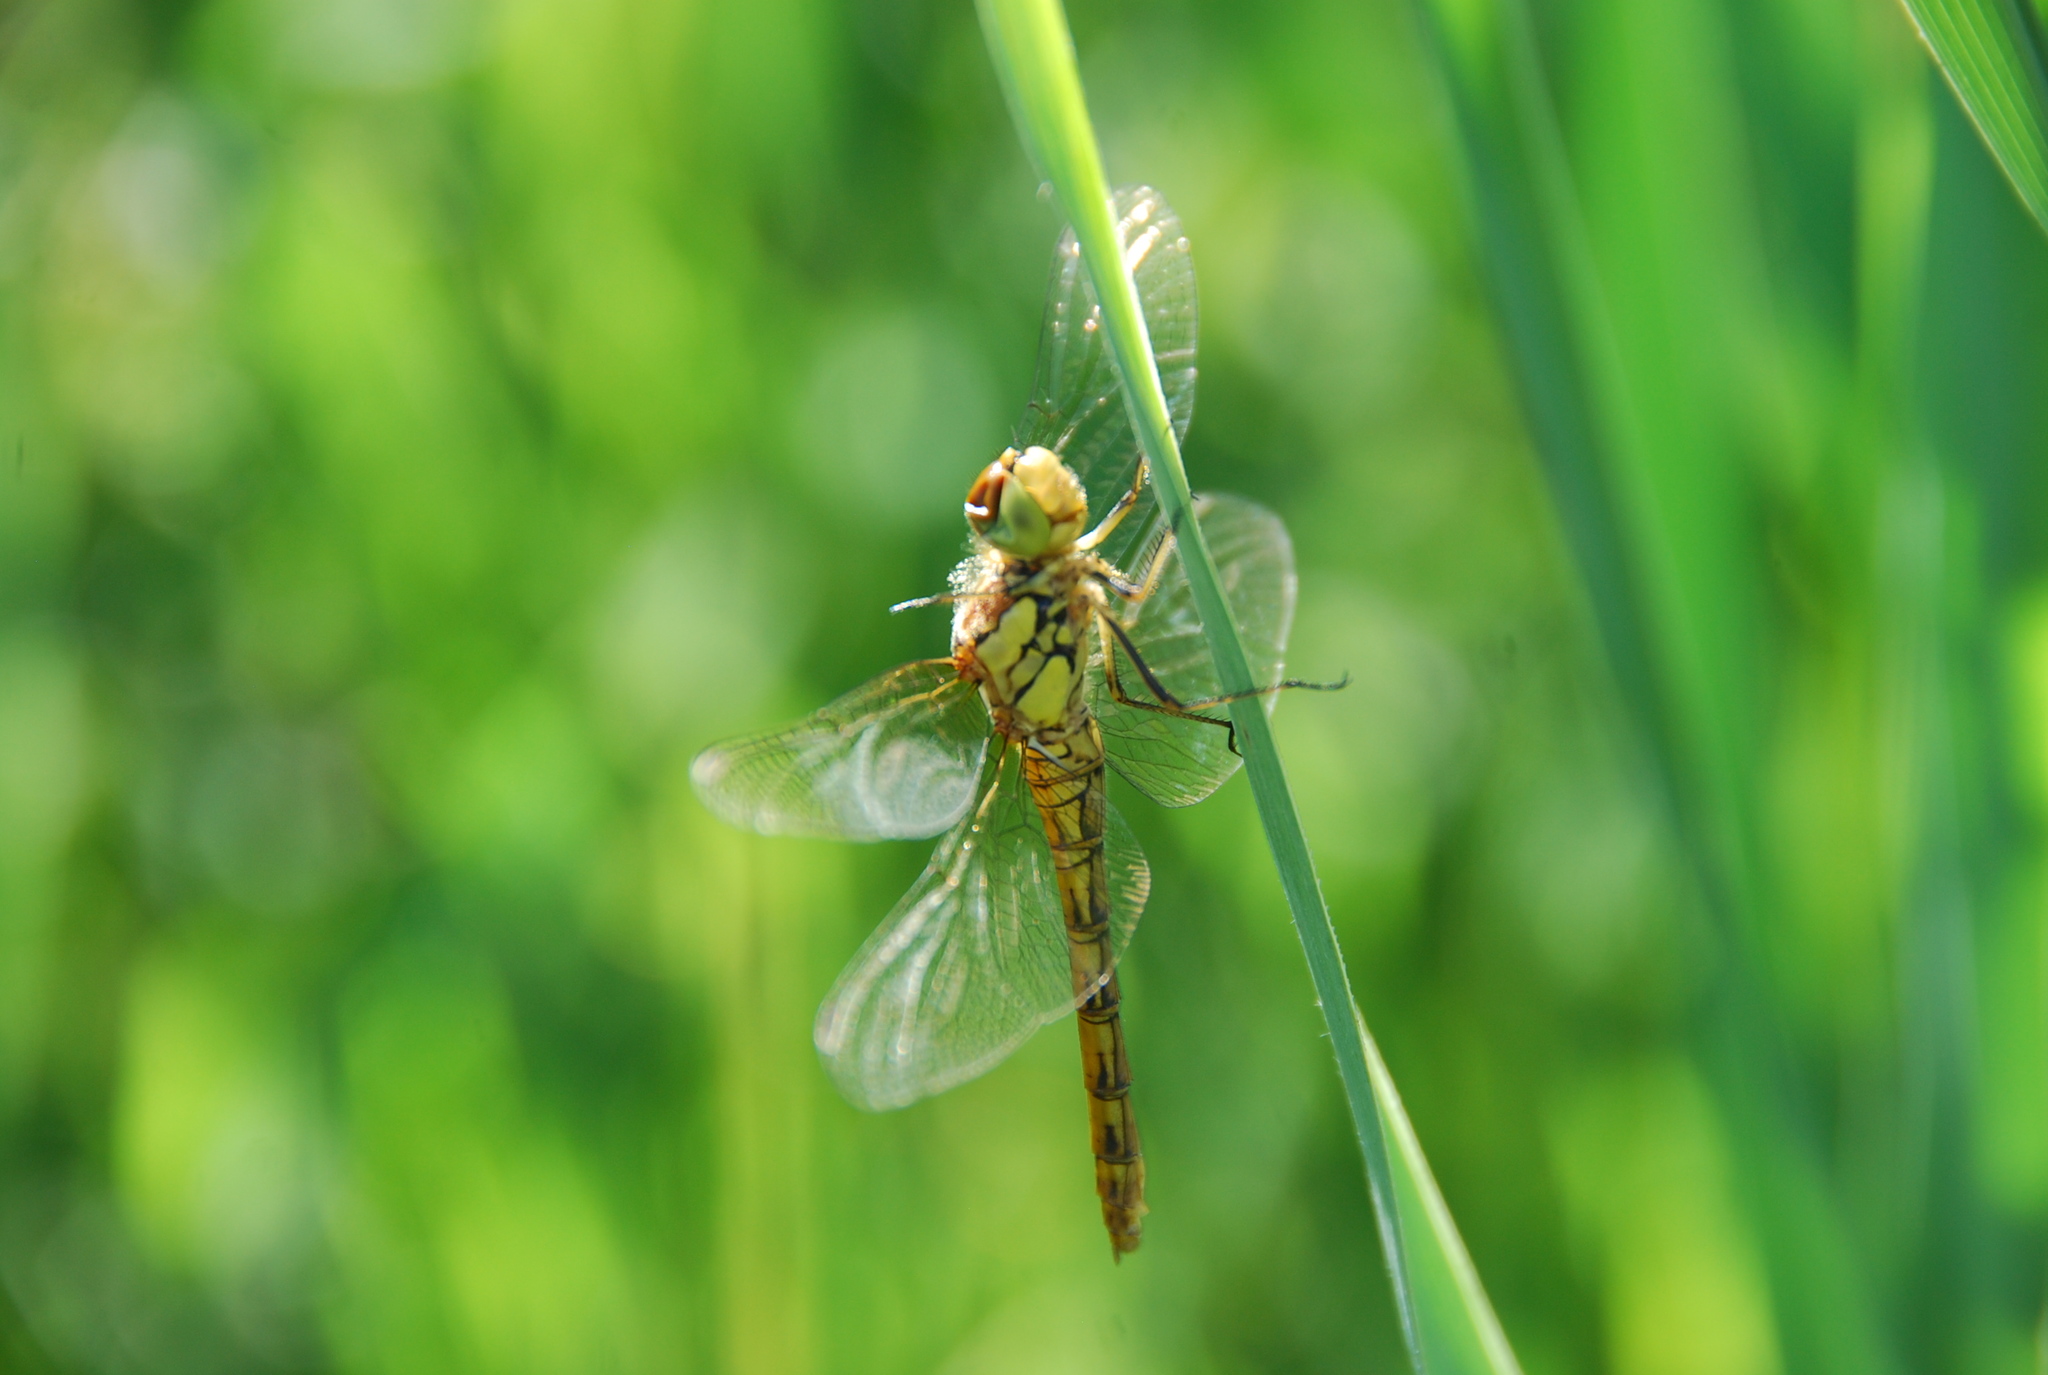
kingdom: Animalia
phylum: Arthropoda
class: Insecta
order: Odonata
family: Libellulidae
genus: Sympetrum
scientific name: Sympetrum striolatum
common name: Common darter
